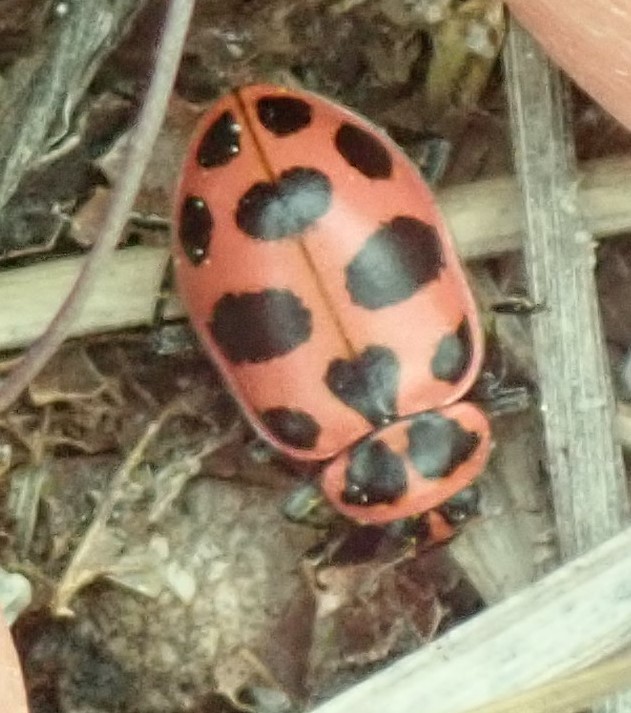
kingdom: Animalia
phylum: Arthropoda
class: Insecta
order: Coleoptera
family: Coccinellidae
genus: Coleomegilla
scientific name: Coleomegilla maculata
